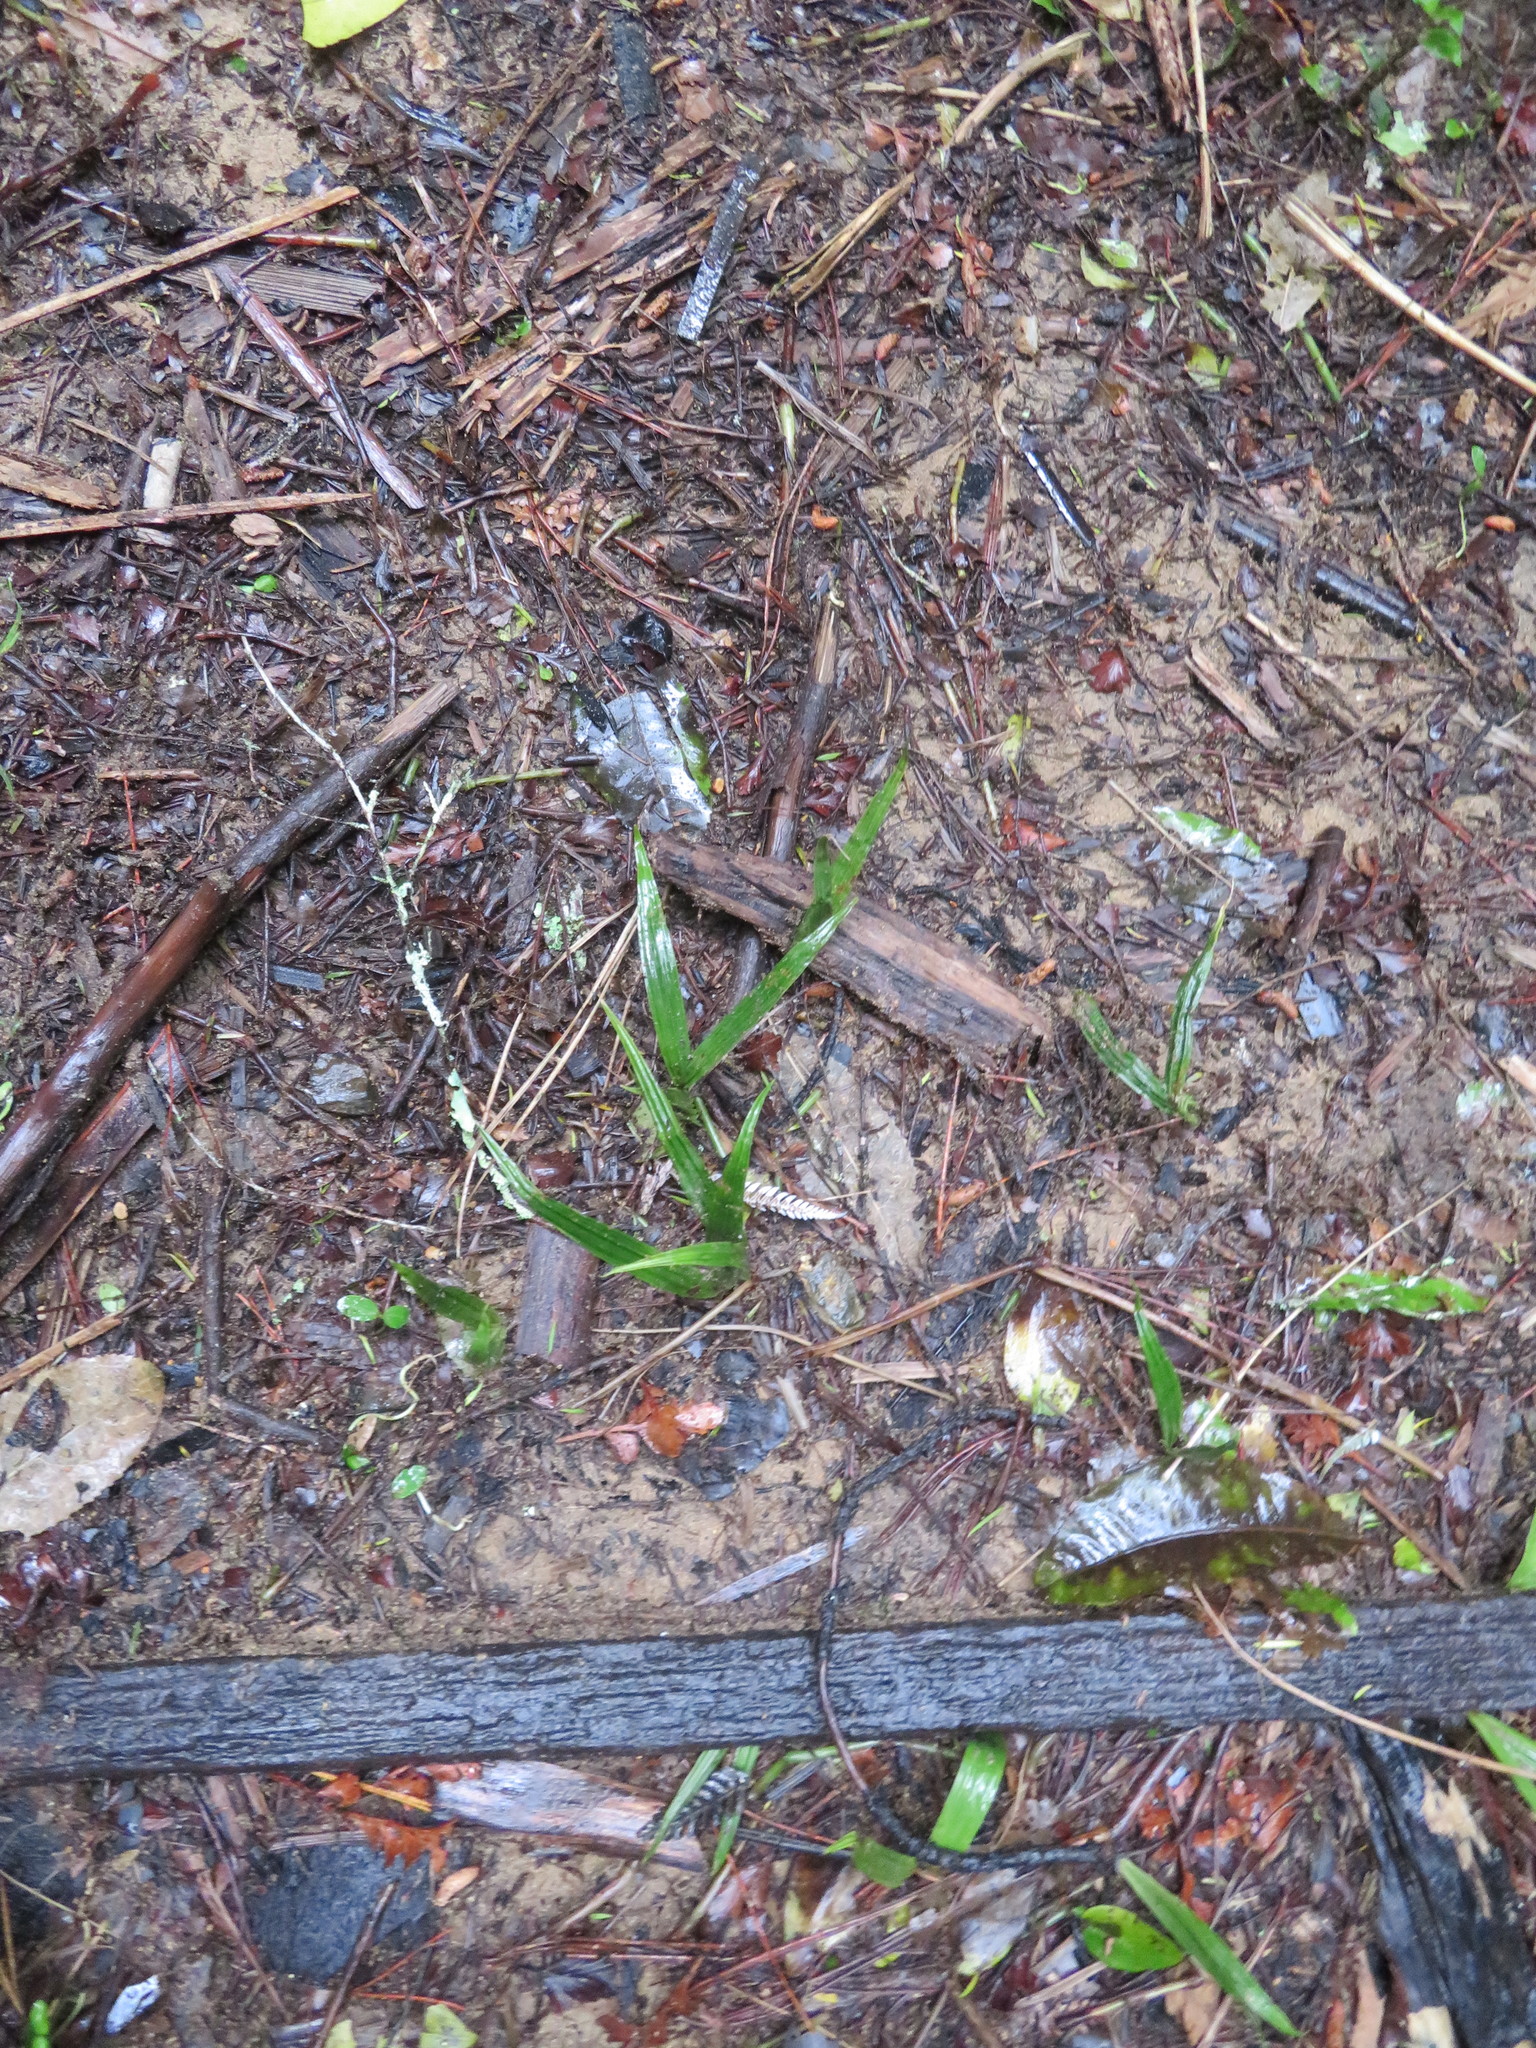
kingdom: Plantae
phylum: Tracheophyta
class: Liliopsida
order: Arecales
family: Arecaceae
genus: Rhopalostylis
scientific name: Rhopalostylis sapida
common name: Feather-duster palm
